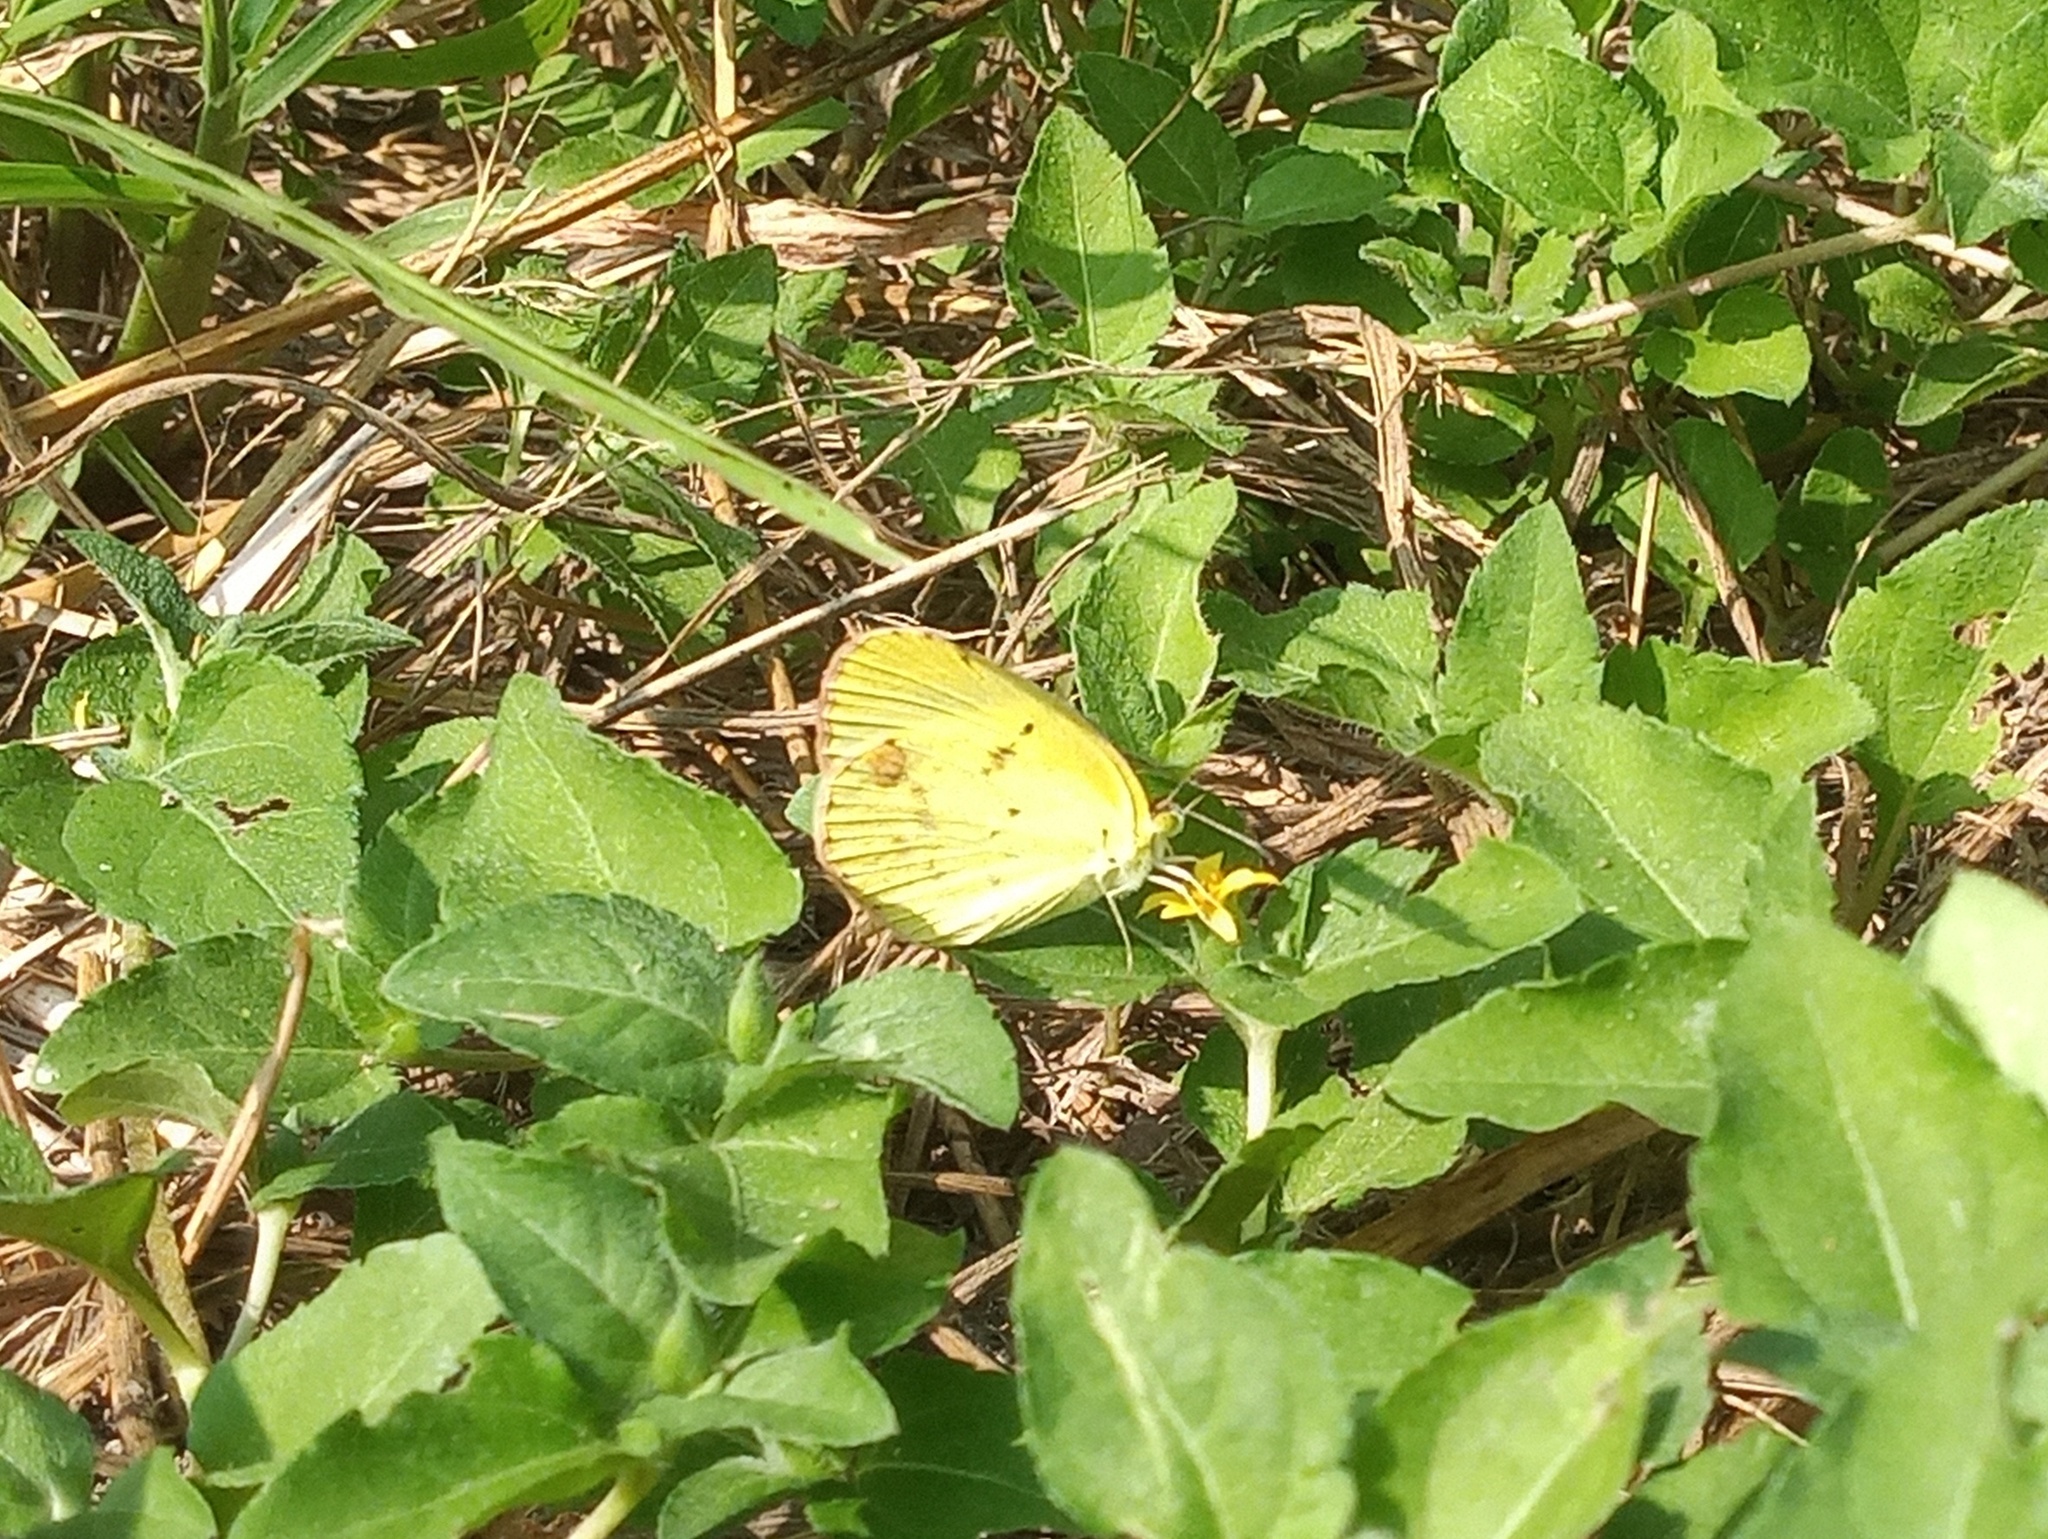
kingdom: Animalia
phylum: Arthropoda
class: Insecta
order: Lepidoptera
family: Pieridae
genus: Pyrisitia
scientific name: Pyrisitia lisa
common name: Little yellow
